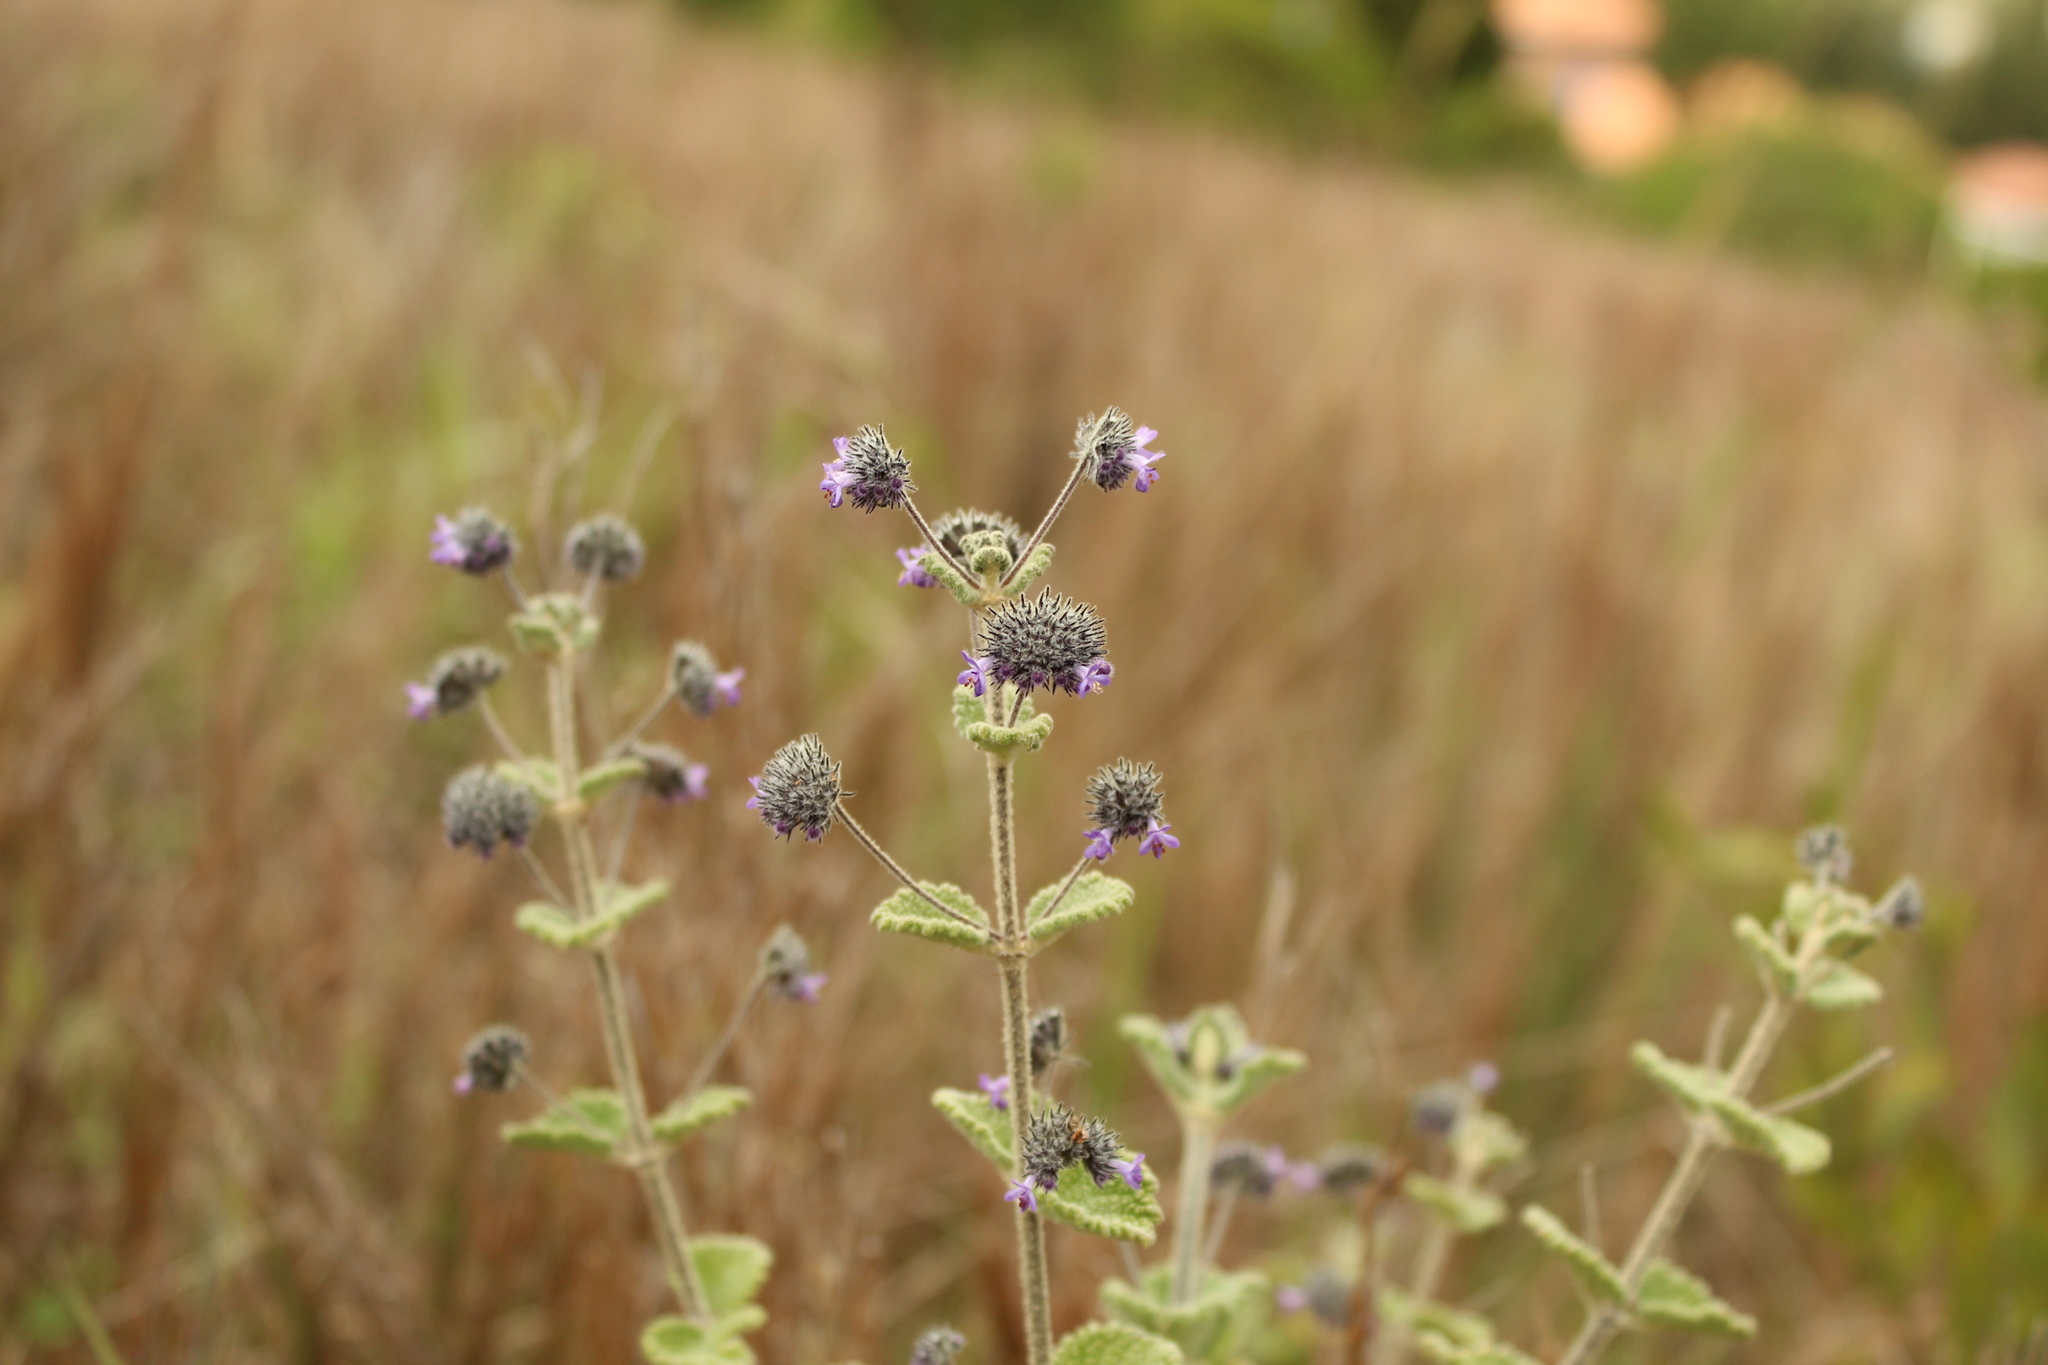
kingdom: Plantae
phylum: Tracheophyta
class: Magnoliopsida
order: Lamiales
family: Lamiaceae
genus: Mesosphaerum
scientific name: Mesosphaerum perbullatum
